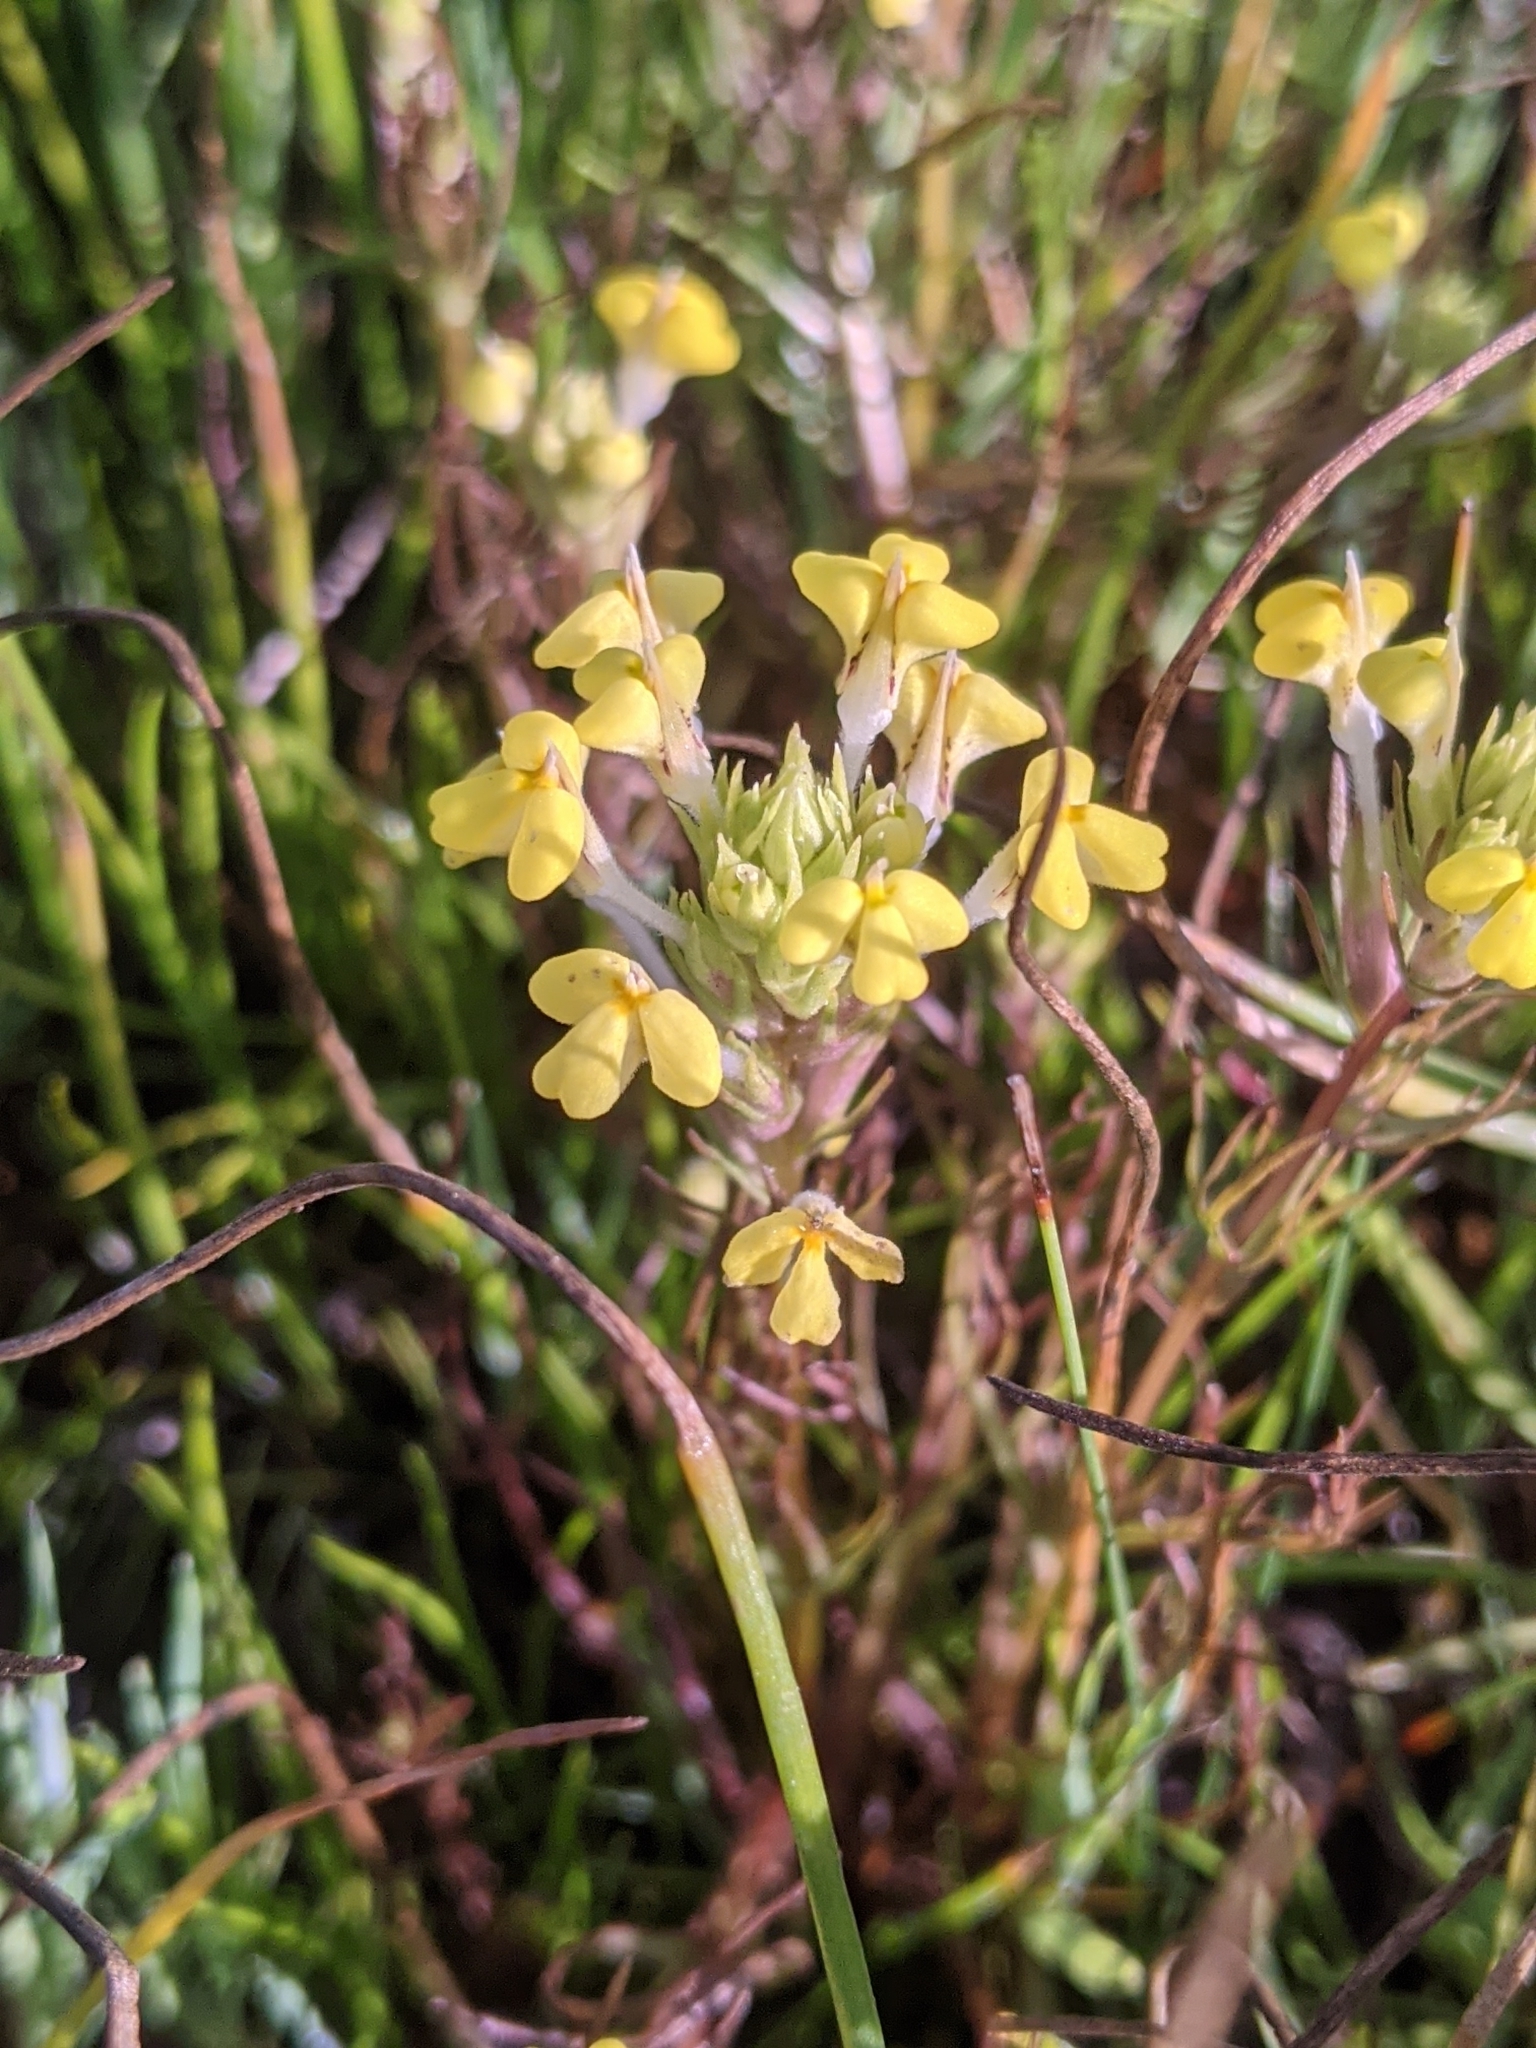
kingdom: Plantae
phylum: Tracheophyta
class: Magnoliopsida
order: Lamiales
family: Orobanchaceae
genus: Triphysaria
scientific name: Triphysaria versicolor
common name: Bearded false owl-clover
